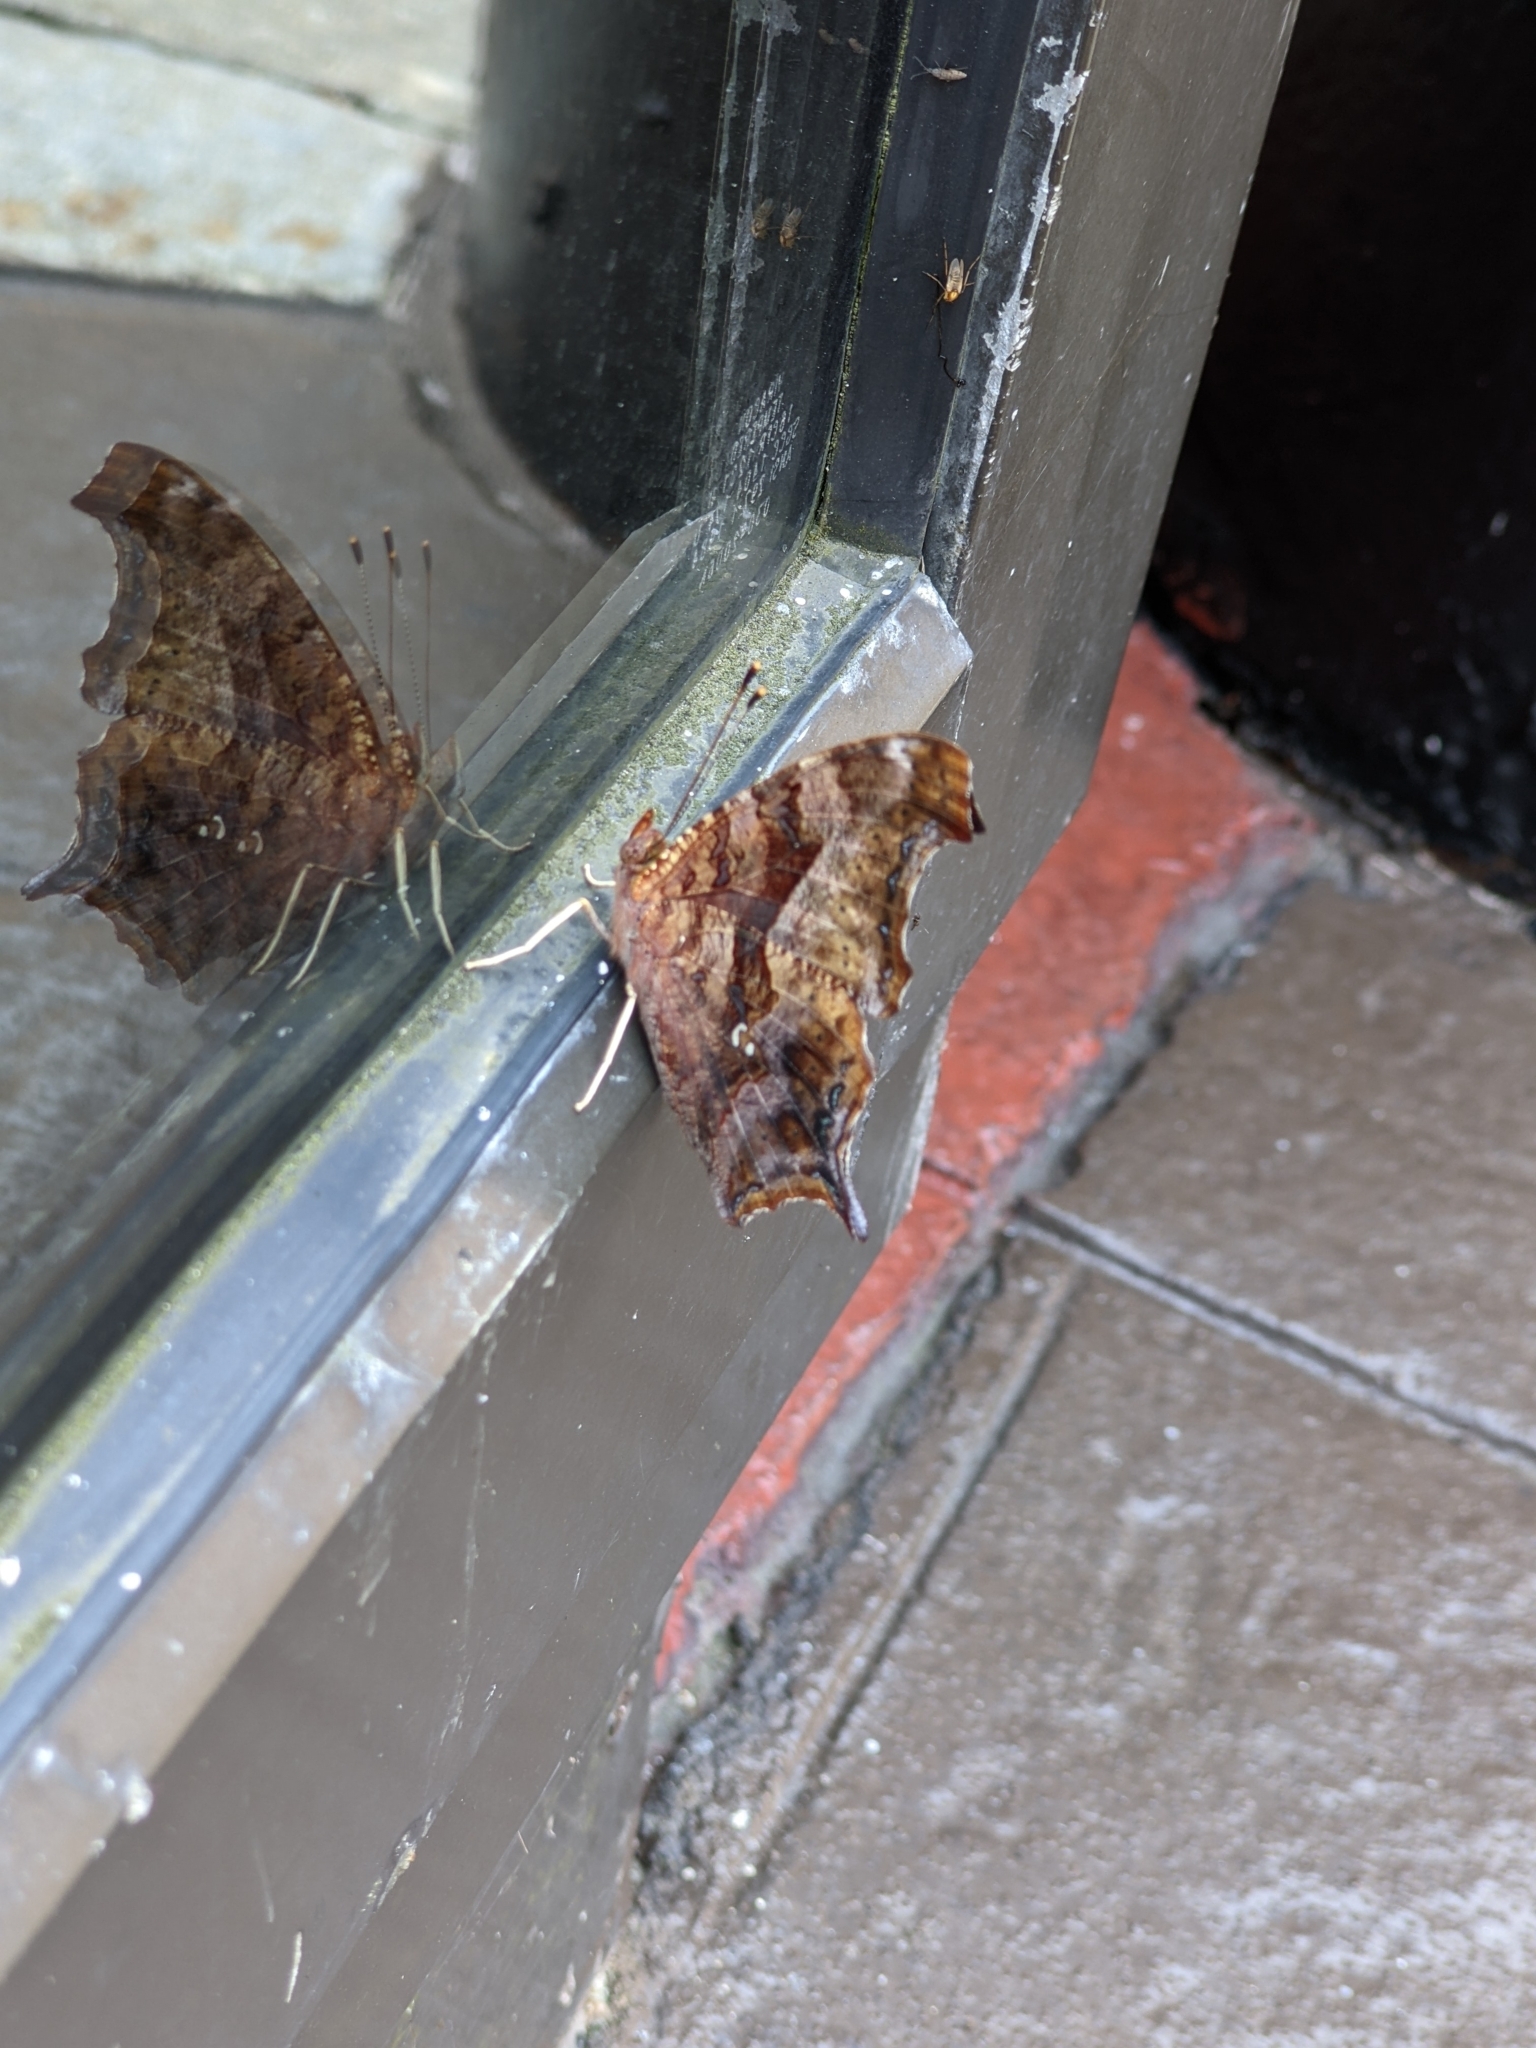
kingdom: Animalia
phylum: Arthropoda
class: Insecta
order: Lepidoptera
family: Nymphalidae
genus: Polygonia
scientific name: Polygonia interrogationis
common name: Question mark
